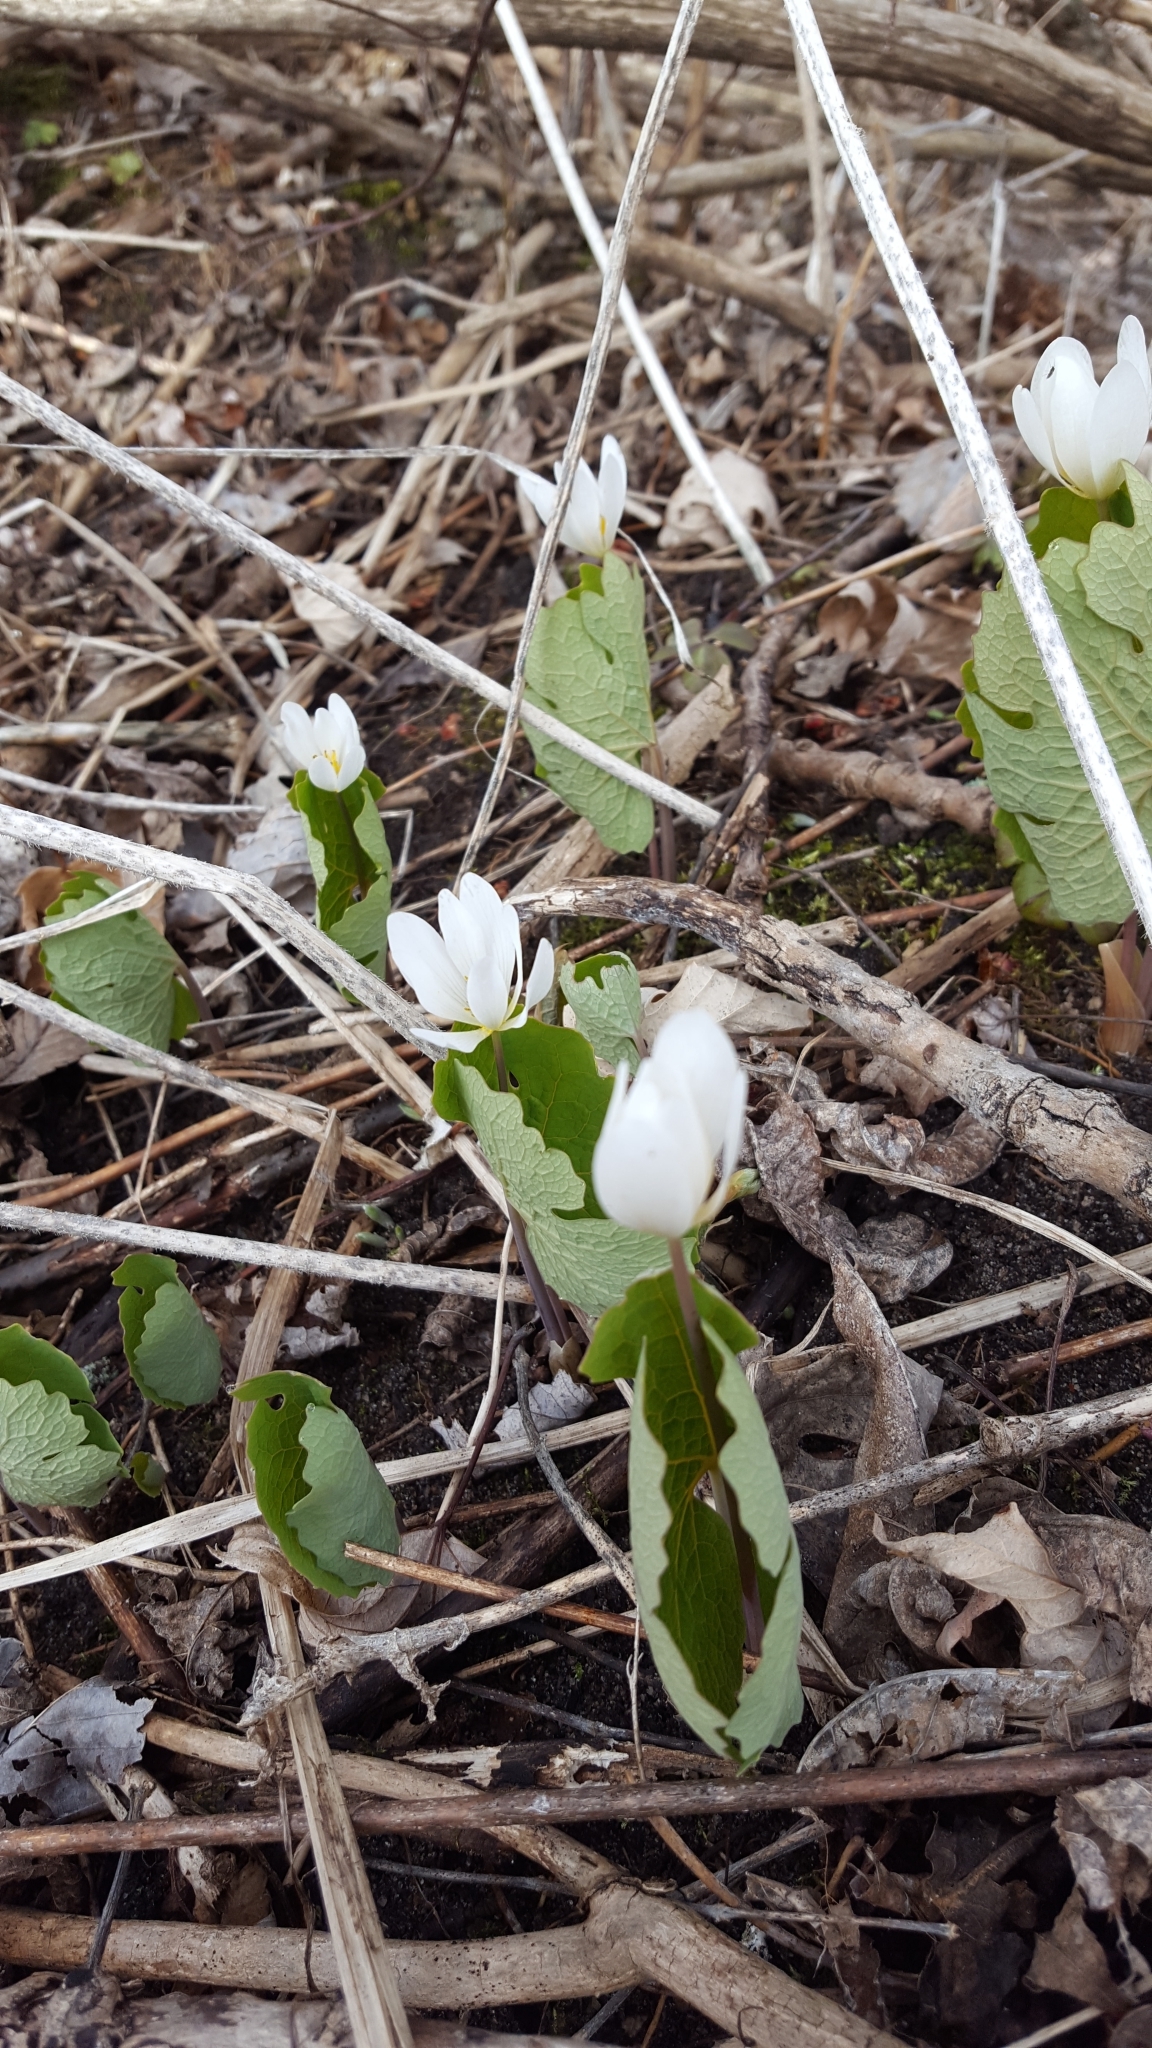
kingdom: Plantae
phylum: Tracheophyta
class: Magnoliopsida
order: Ranunculales
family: Papaveraceae
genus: Sanguinaria
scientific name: Sanguinaria canadensis
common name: Bloodroot
